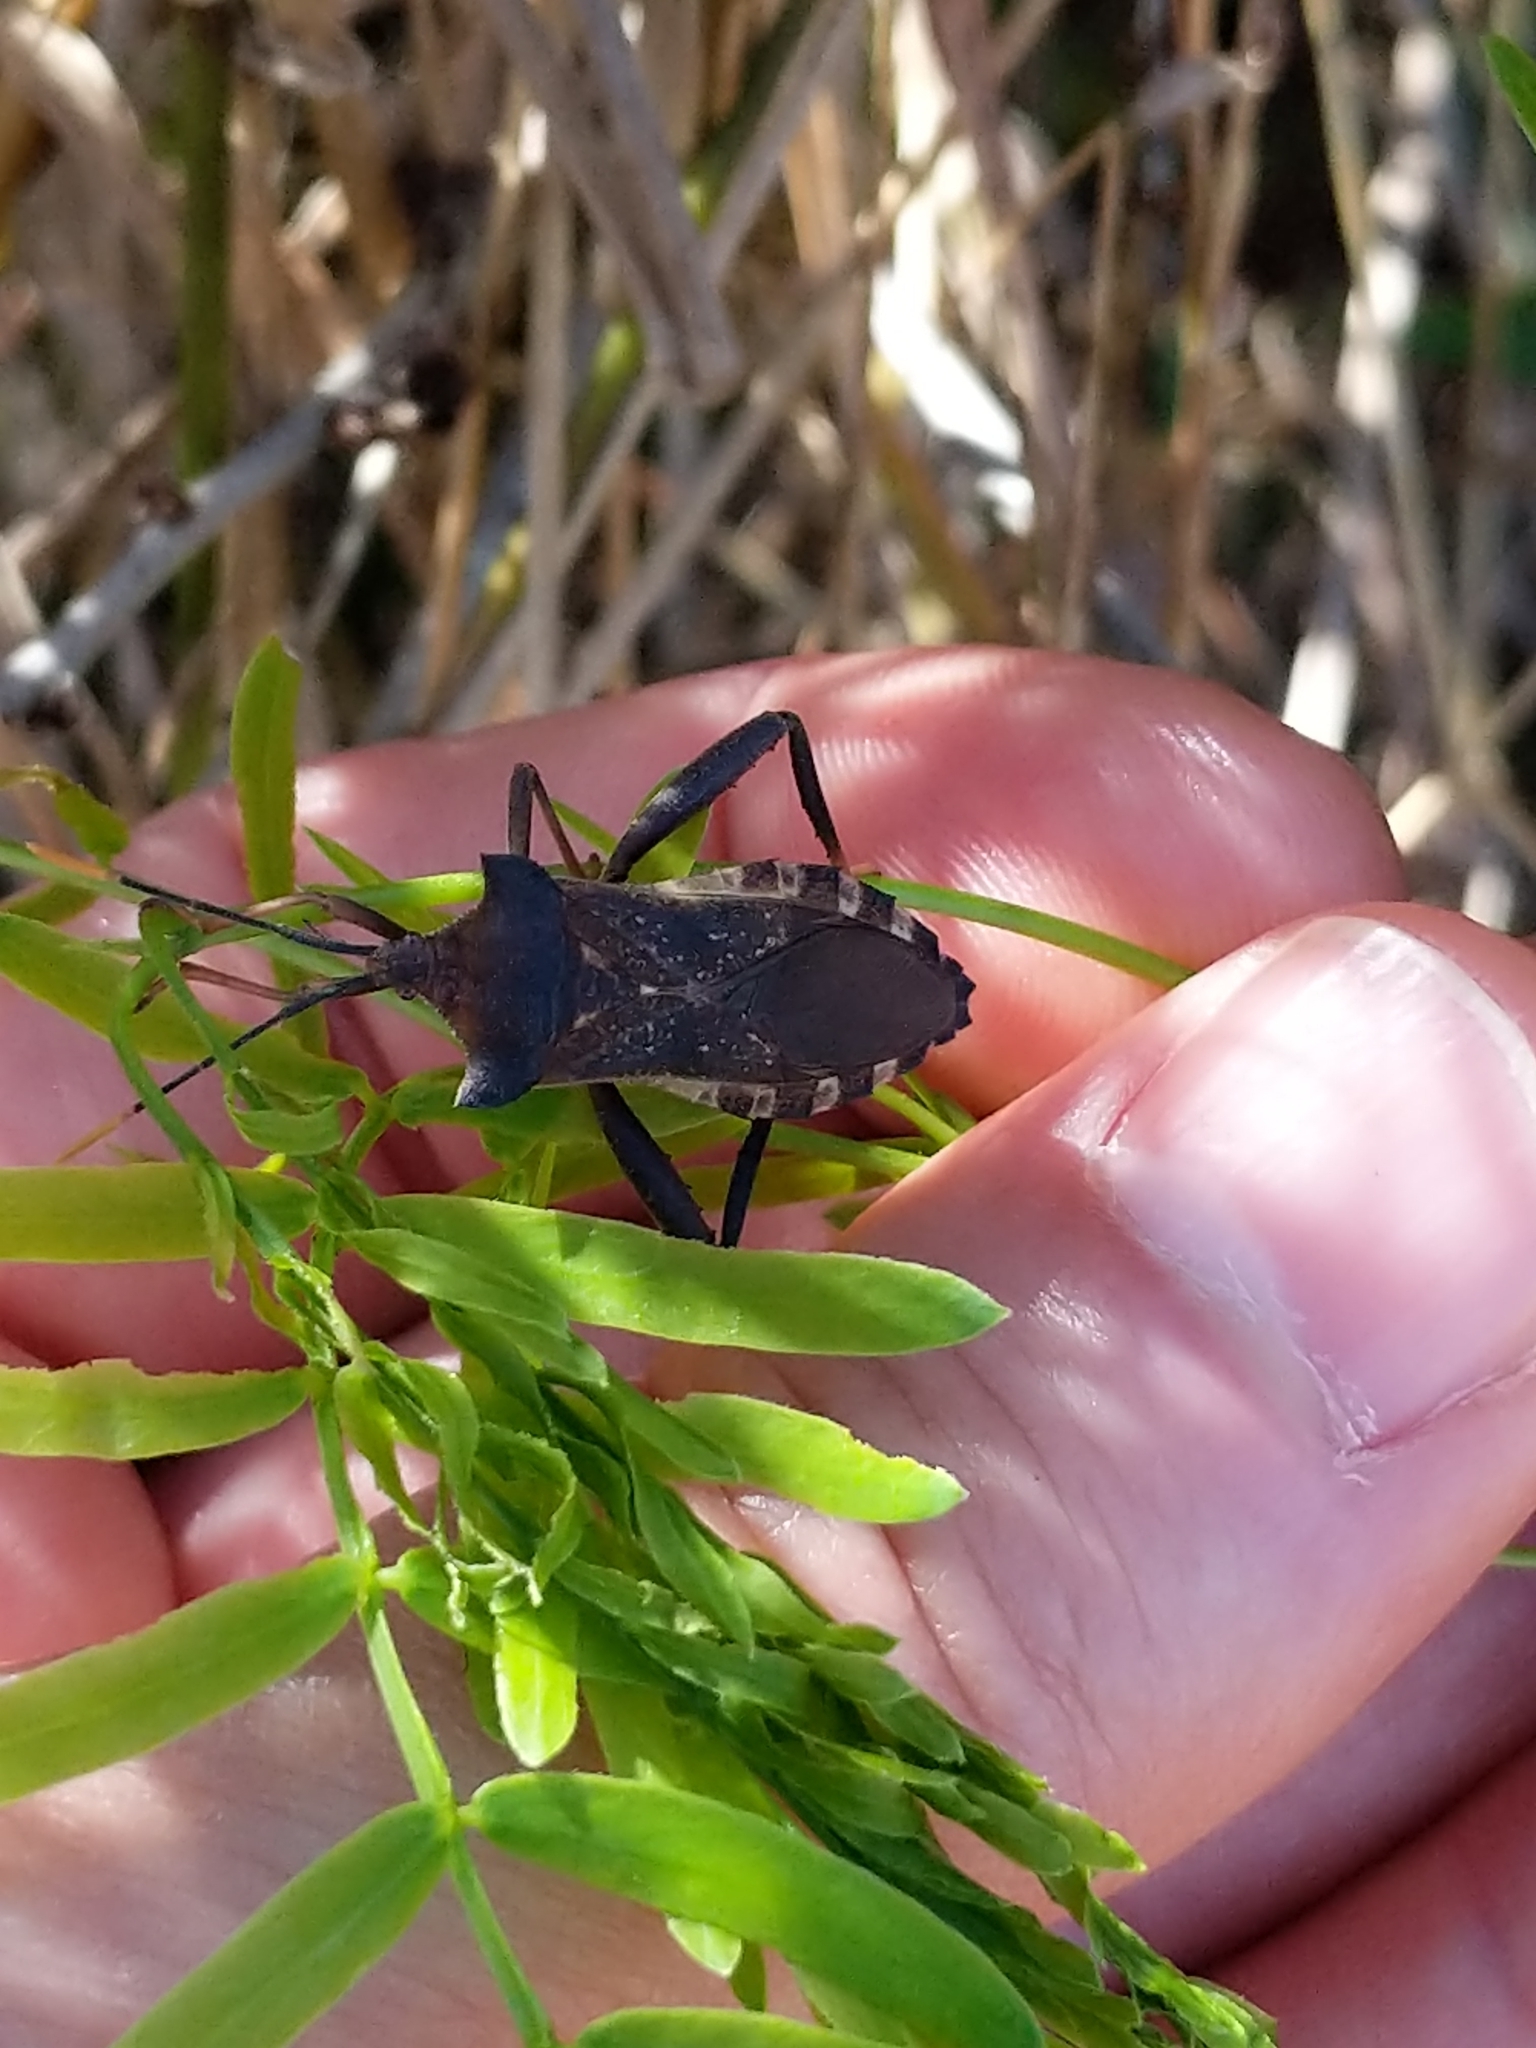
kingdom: Animalia
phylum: Arthropoda
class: Insecta
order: Hemiptera
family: Coreidae
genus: Mozena
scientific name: Mozena lunata
